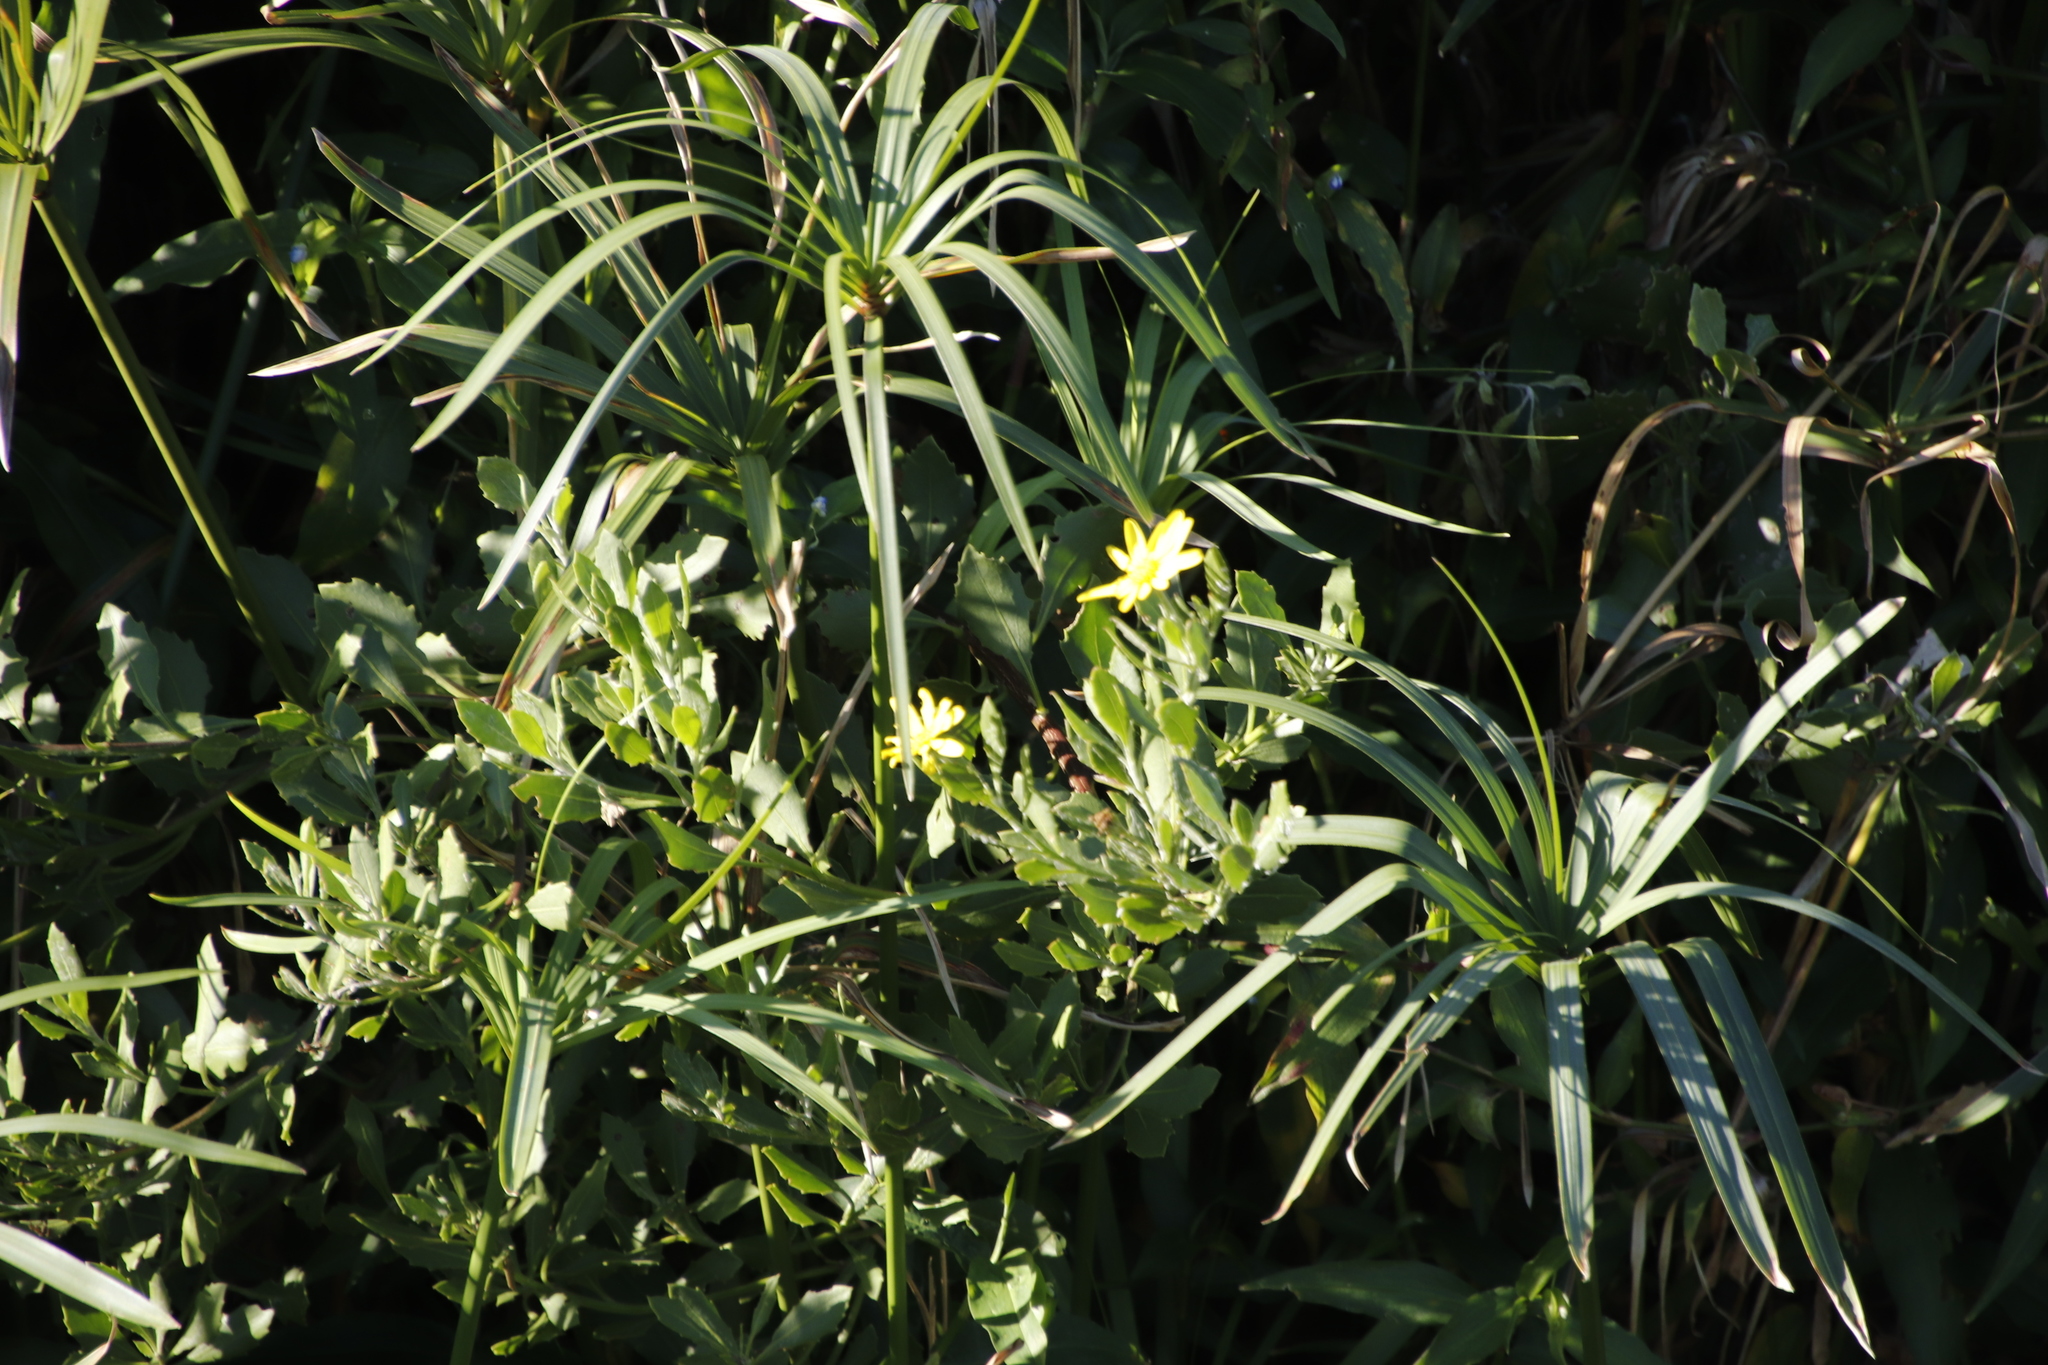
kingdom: Plantae
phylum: Tracheophyta
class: Magnoliopsida
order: Asterales
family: Asteraceae
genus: Osteospermum
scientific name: Osteospermum moniliferum
